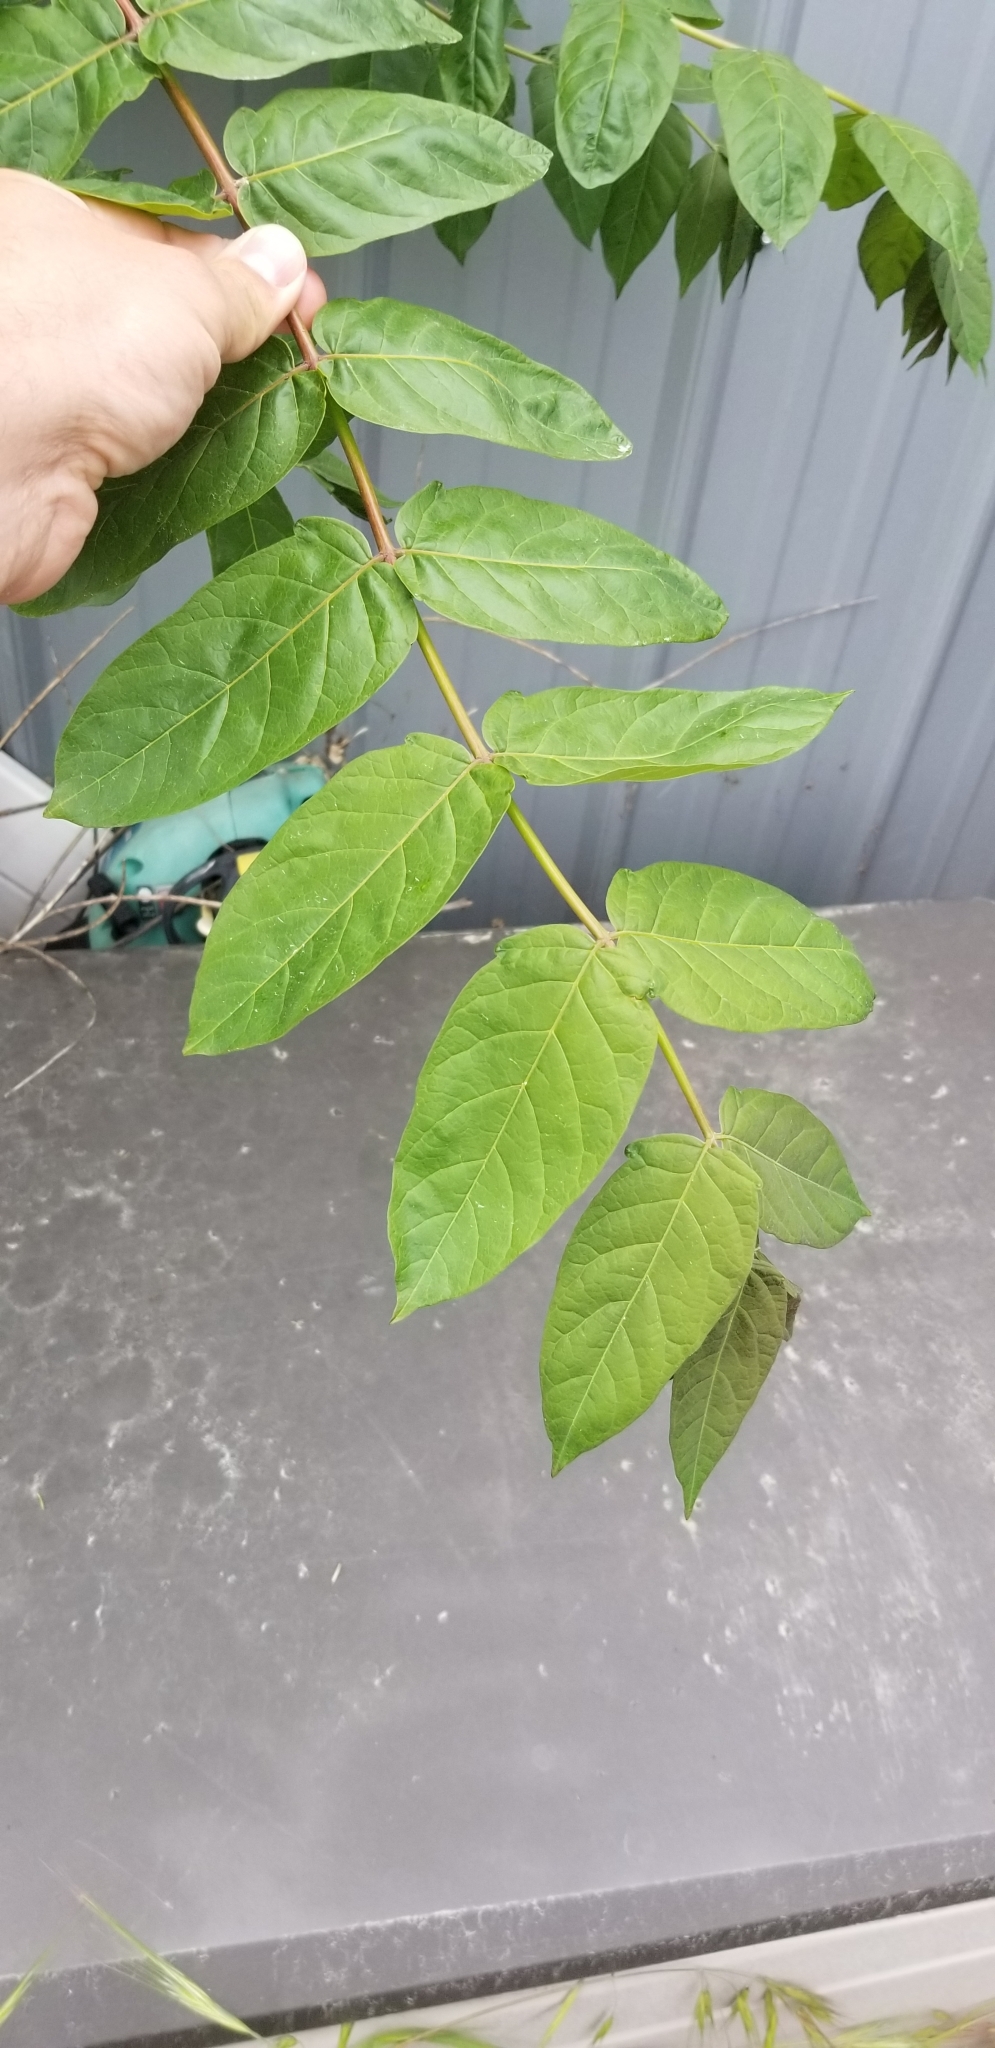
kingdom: Plantae
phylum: Tracheophyta
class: Magnoliopsida
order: Sapindales
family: Simaroubaceae
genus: Ailanthus
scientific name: Ailanthus altissima
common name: Tree-of-heaven
